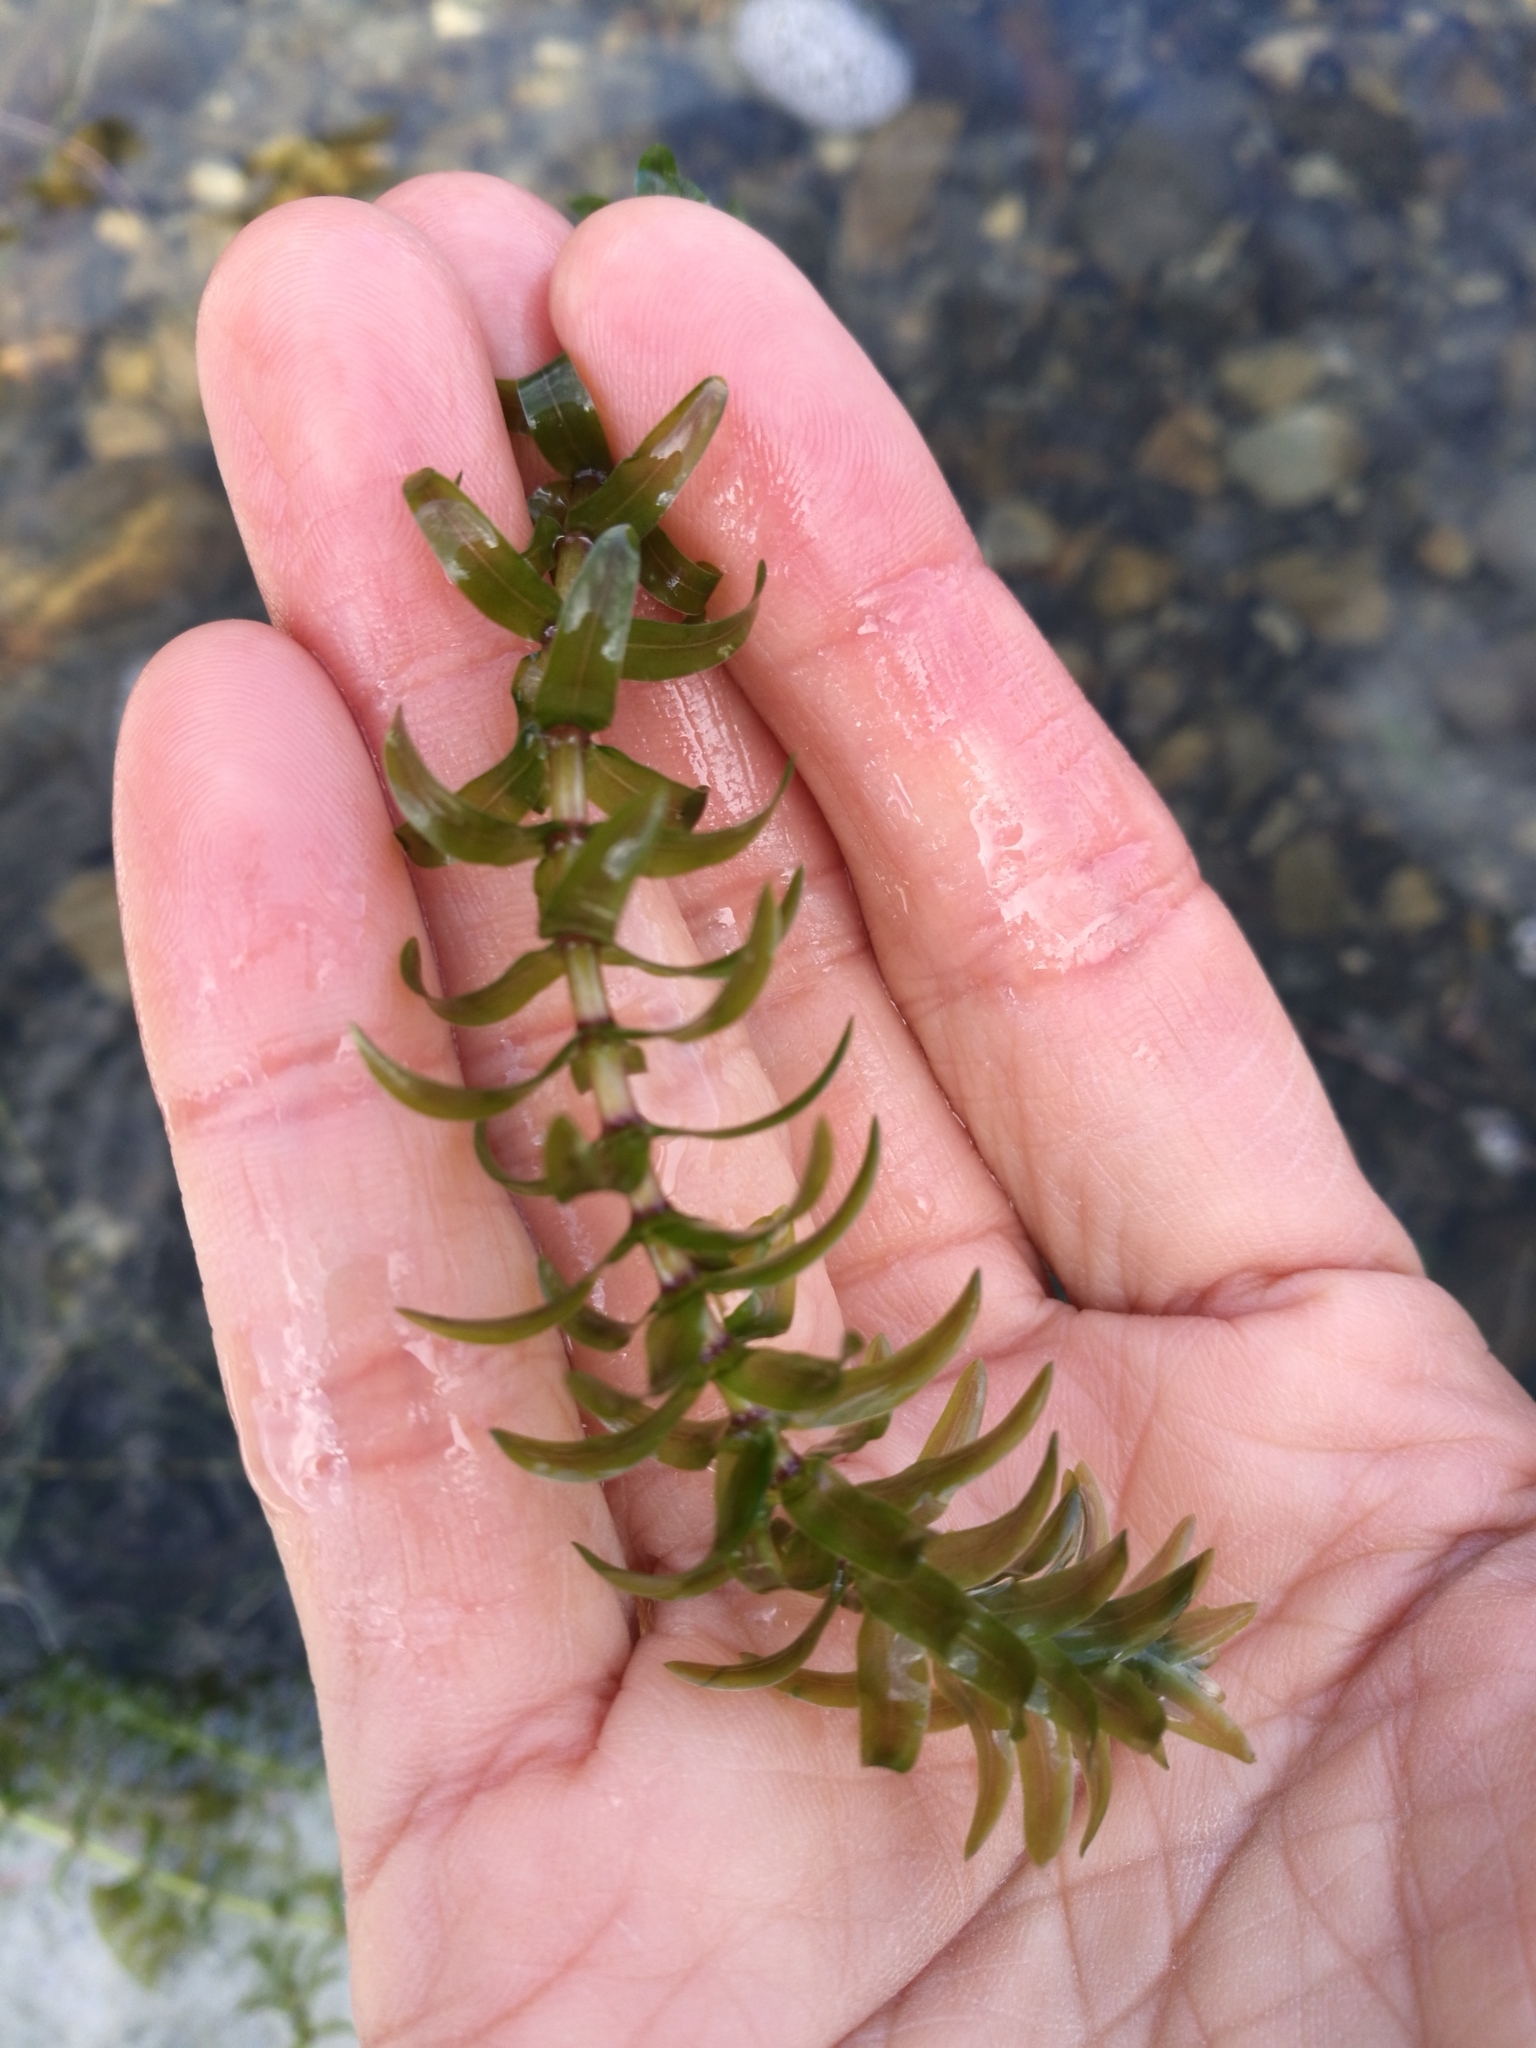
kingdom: Plantae
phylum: Tracheophyta
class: Liliopsida
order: Alismatales
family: Hydrocharitaceae
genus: Elodea
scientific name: Elodea canadensis
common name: Canadian waterweed
